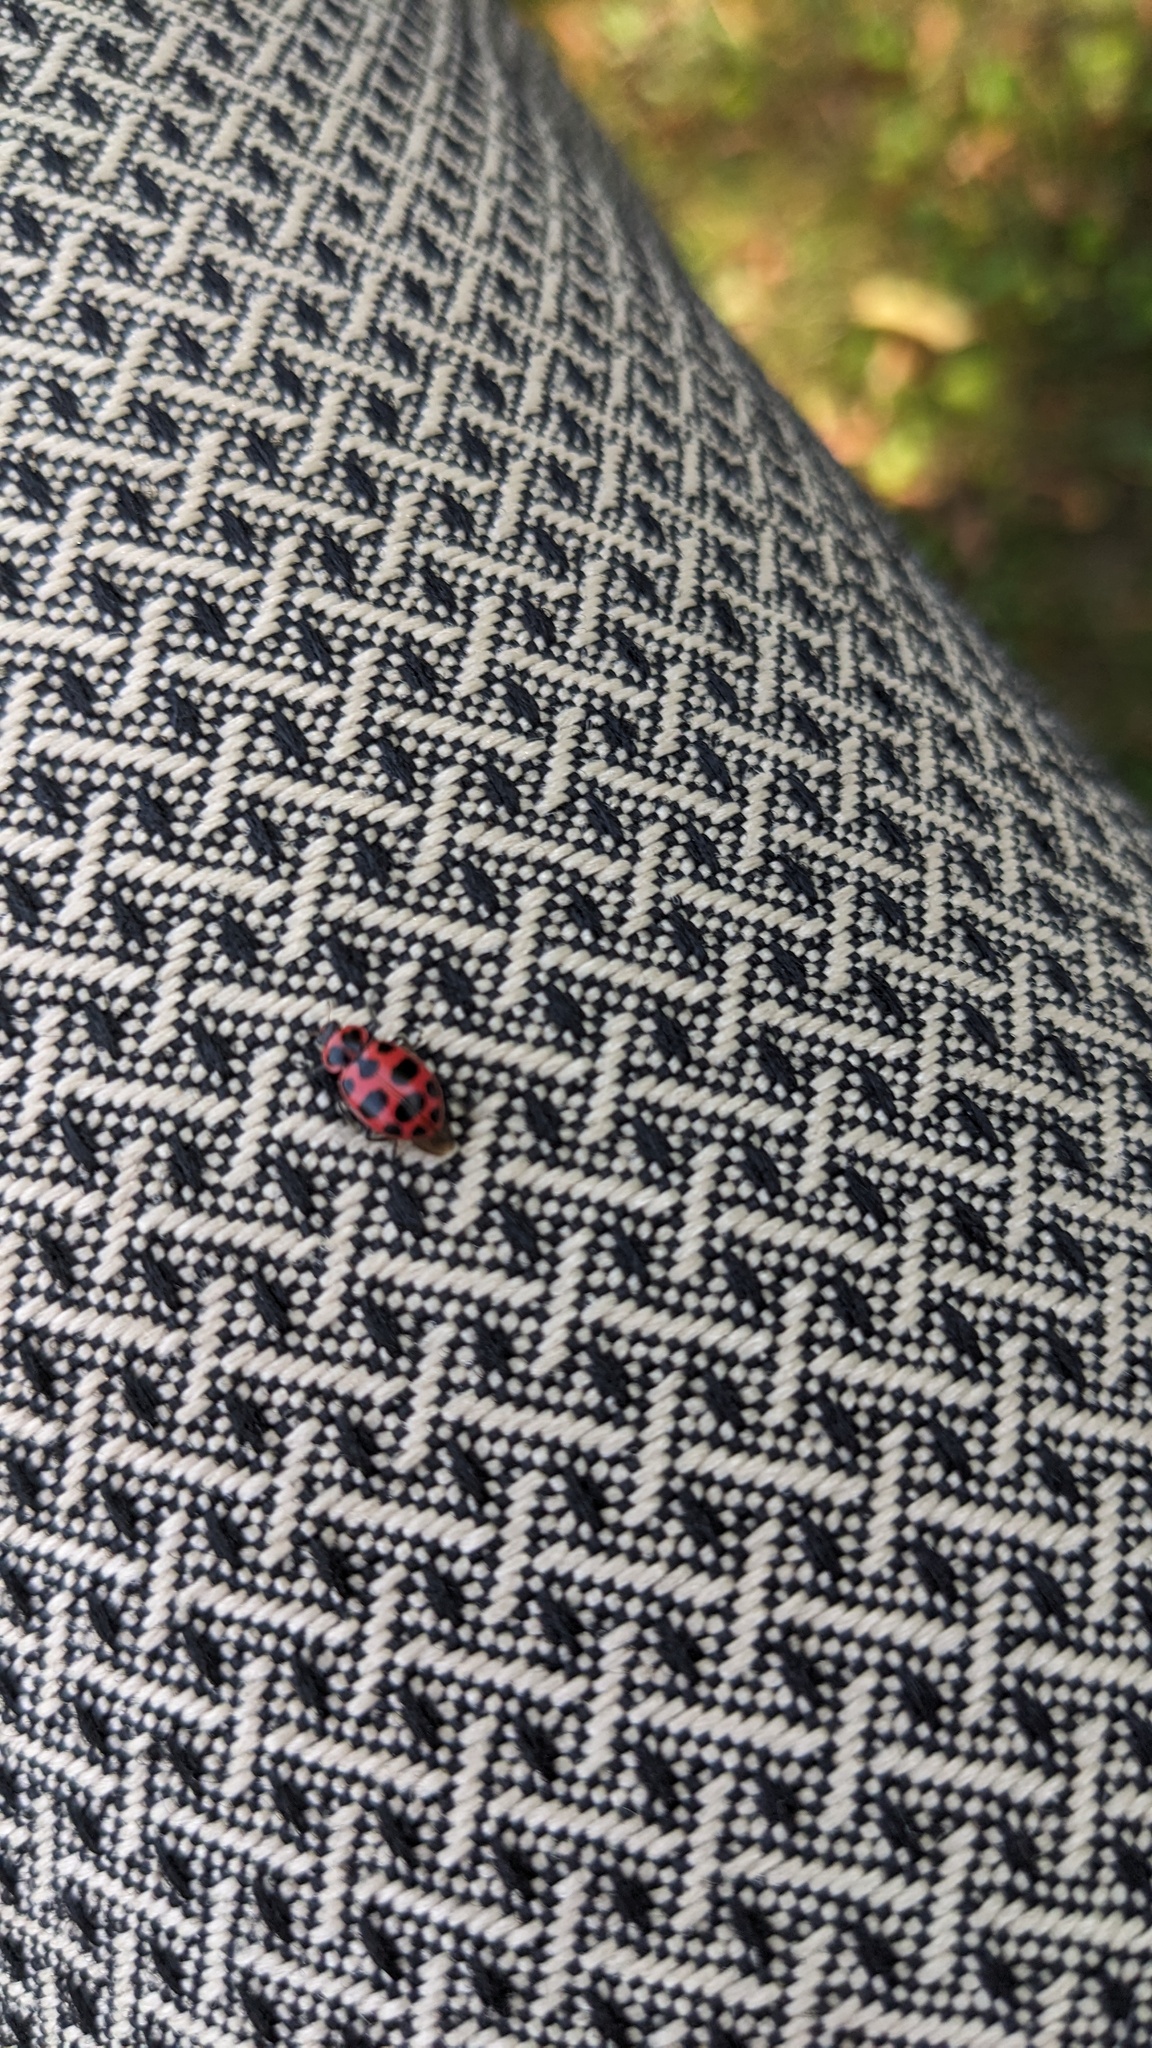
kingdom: Animalia
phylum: Arthropoda
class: Insecta
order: Coleoptera
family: Coccinellidae
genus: Coleomegilla
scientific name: Coleomegilla maculata
